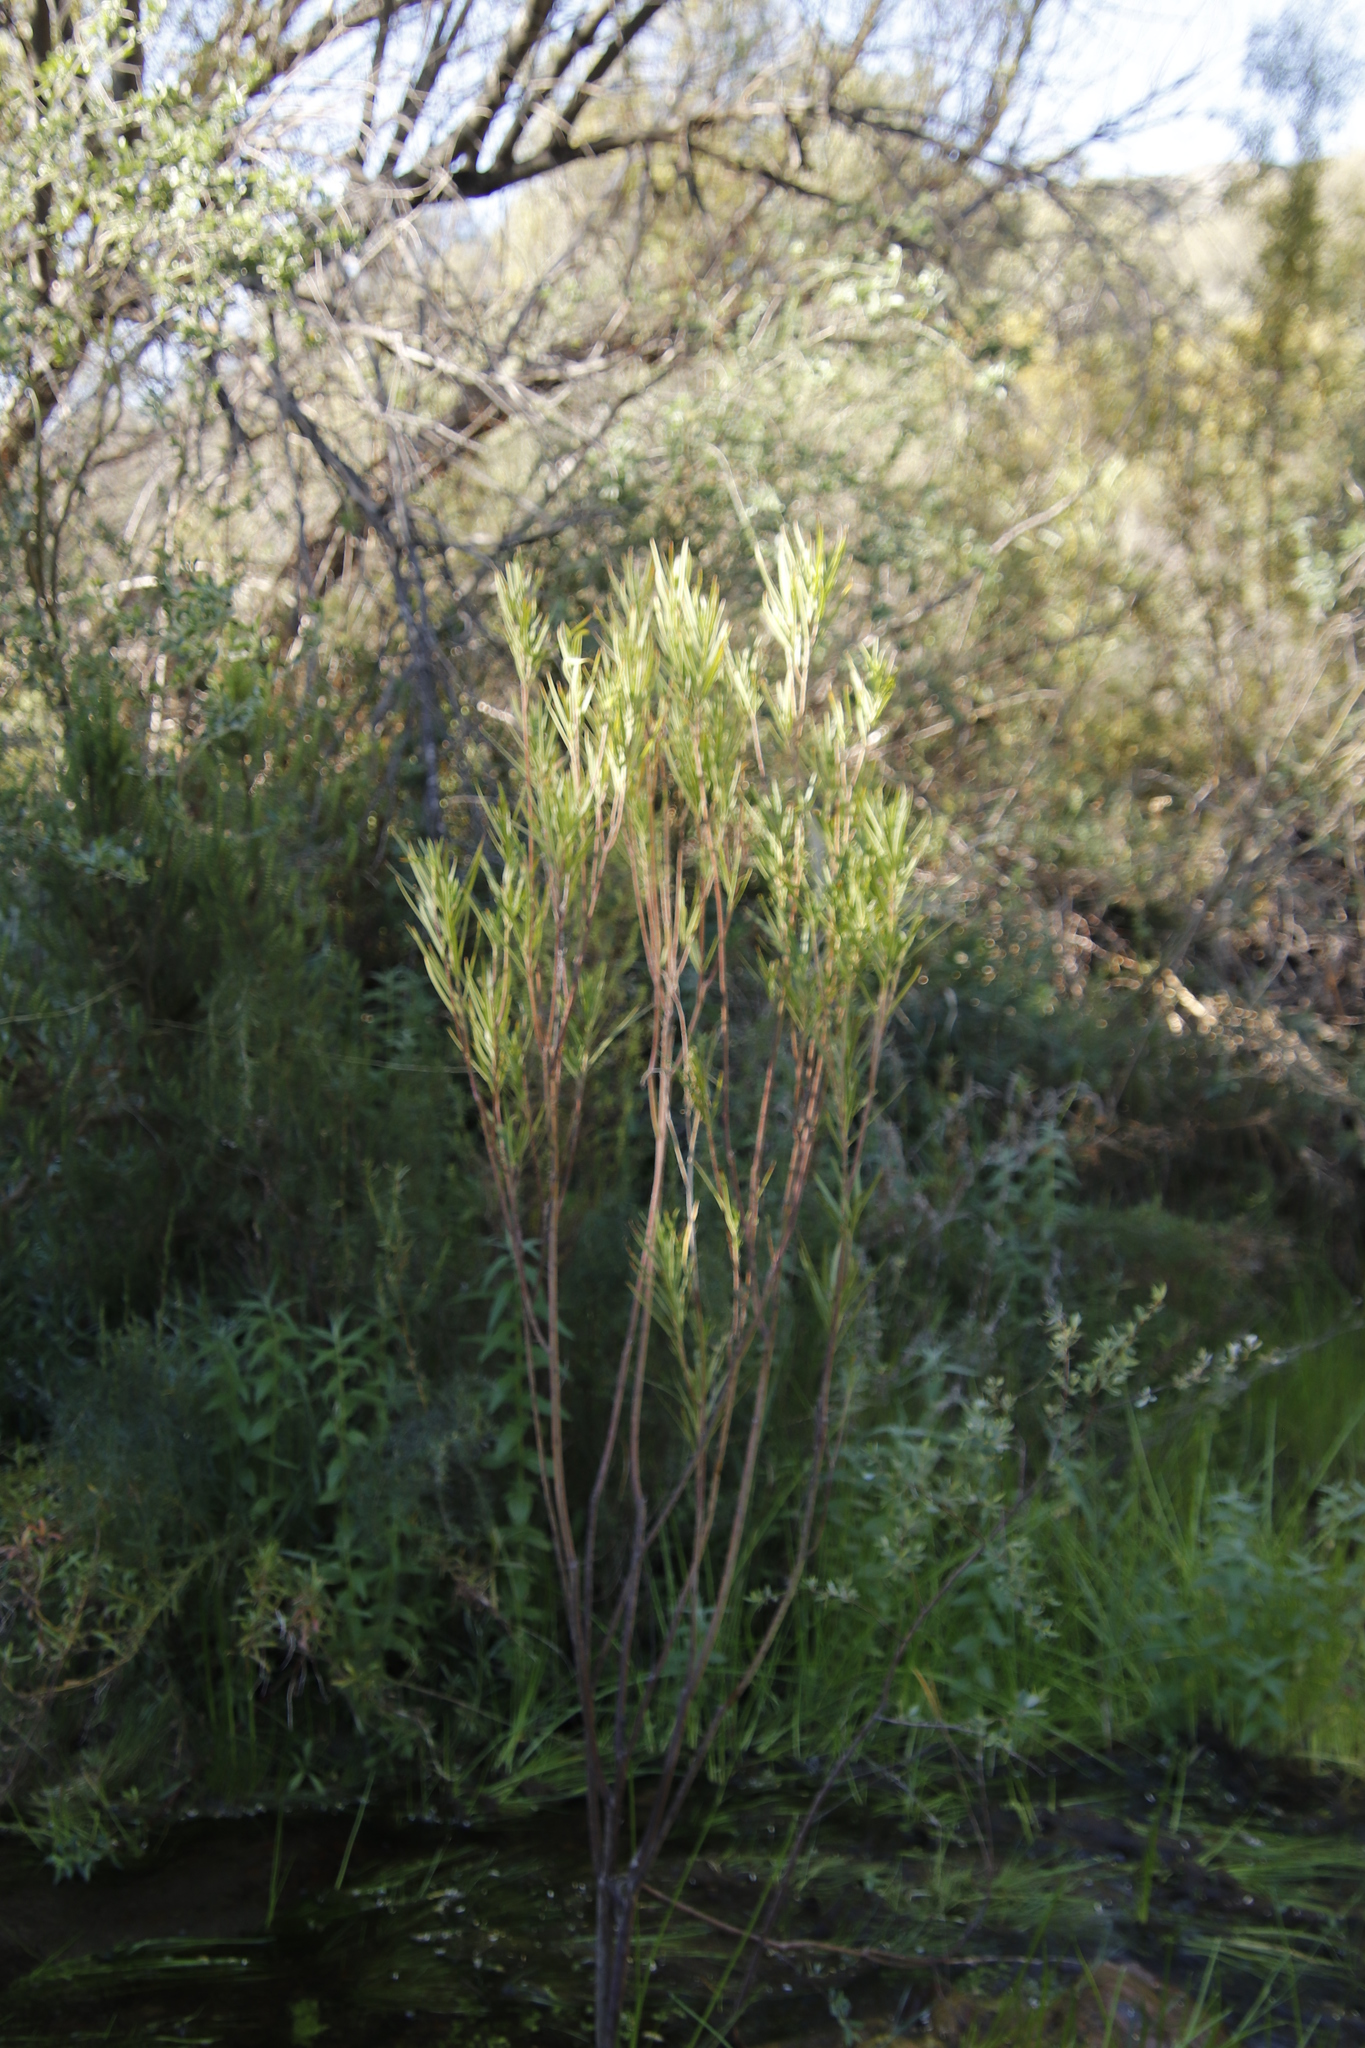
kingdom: Plantae
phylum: Tracheophyta
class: Magnoliopsida
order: Gentianales
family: Apocynaceae
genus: Gomphocarpus
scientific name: Gomphocarpus fruticosus
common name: Milkweed
